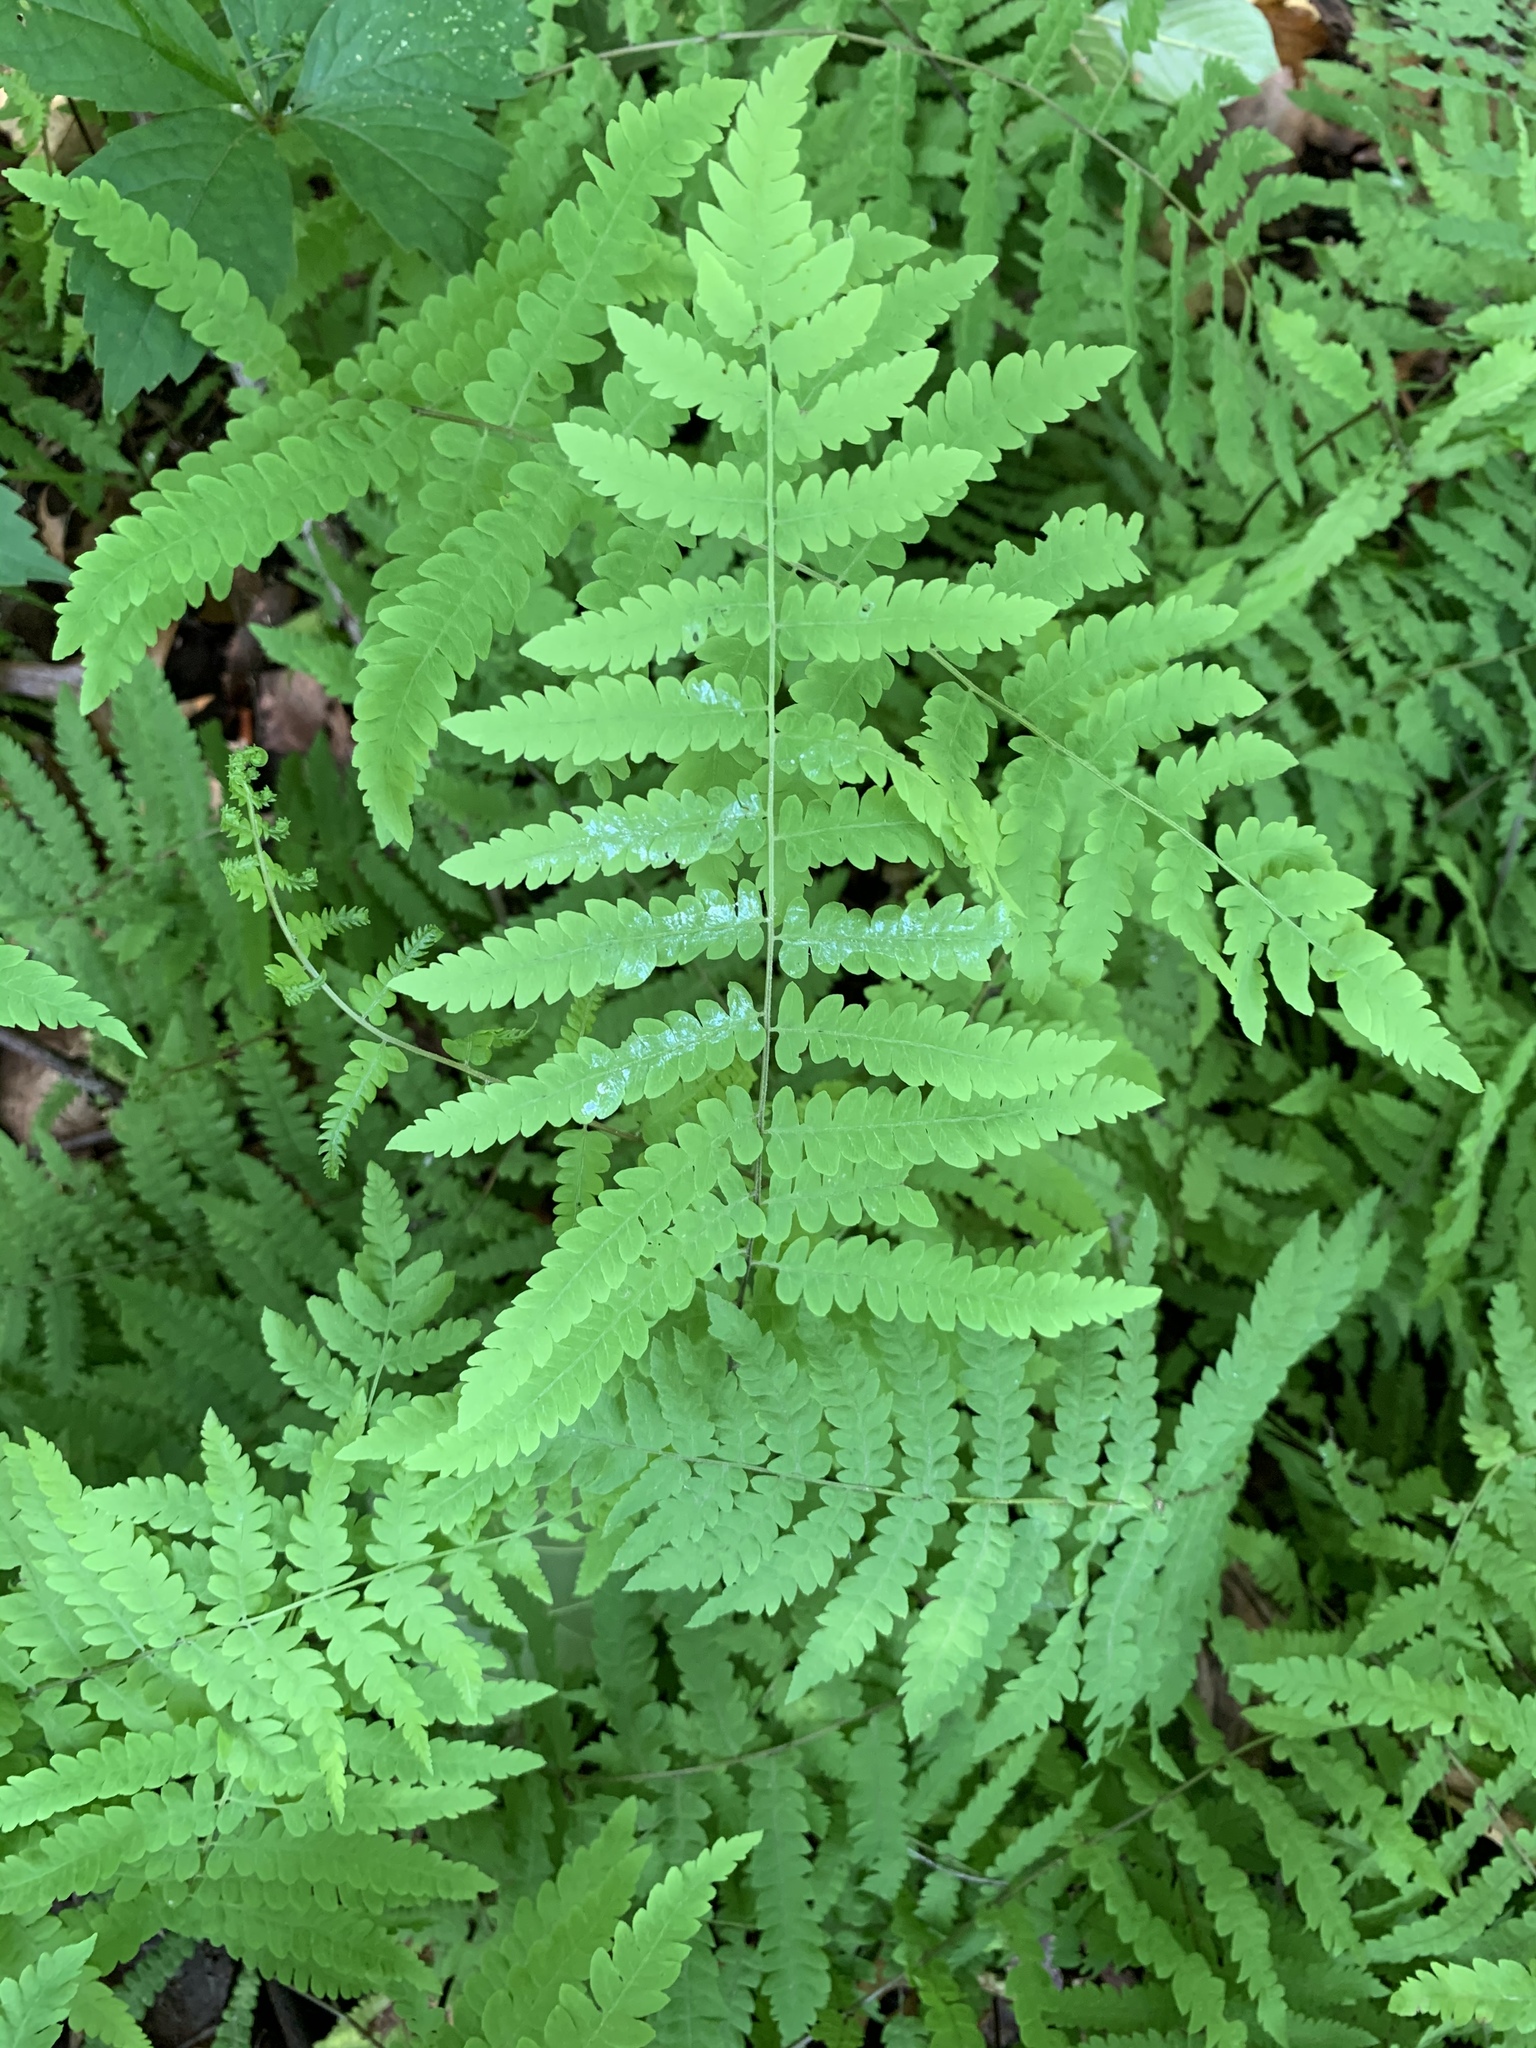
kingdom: Plantae
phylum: Tracheophyta
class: Polypodiopsida
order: Polypodiales
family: Thelypteridaceae
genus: Thelypteris
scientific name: Thelypteris palustris
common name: Marsh fern
